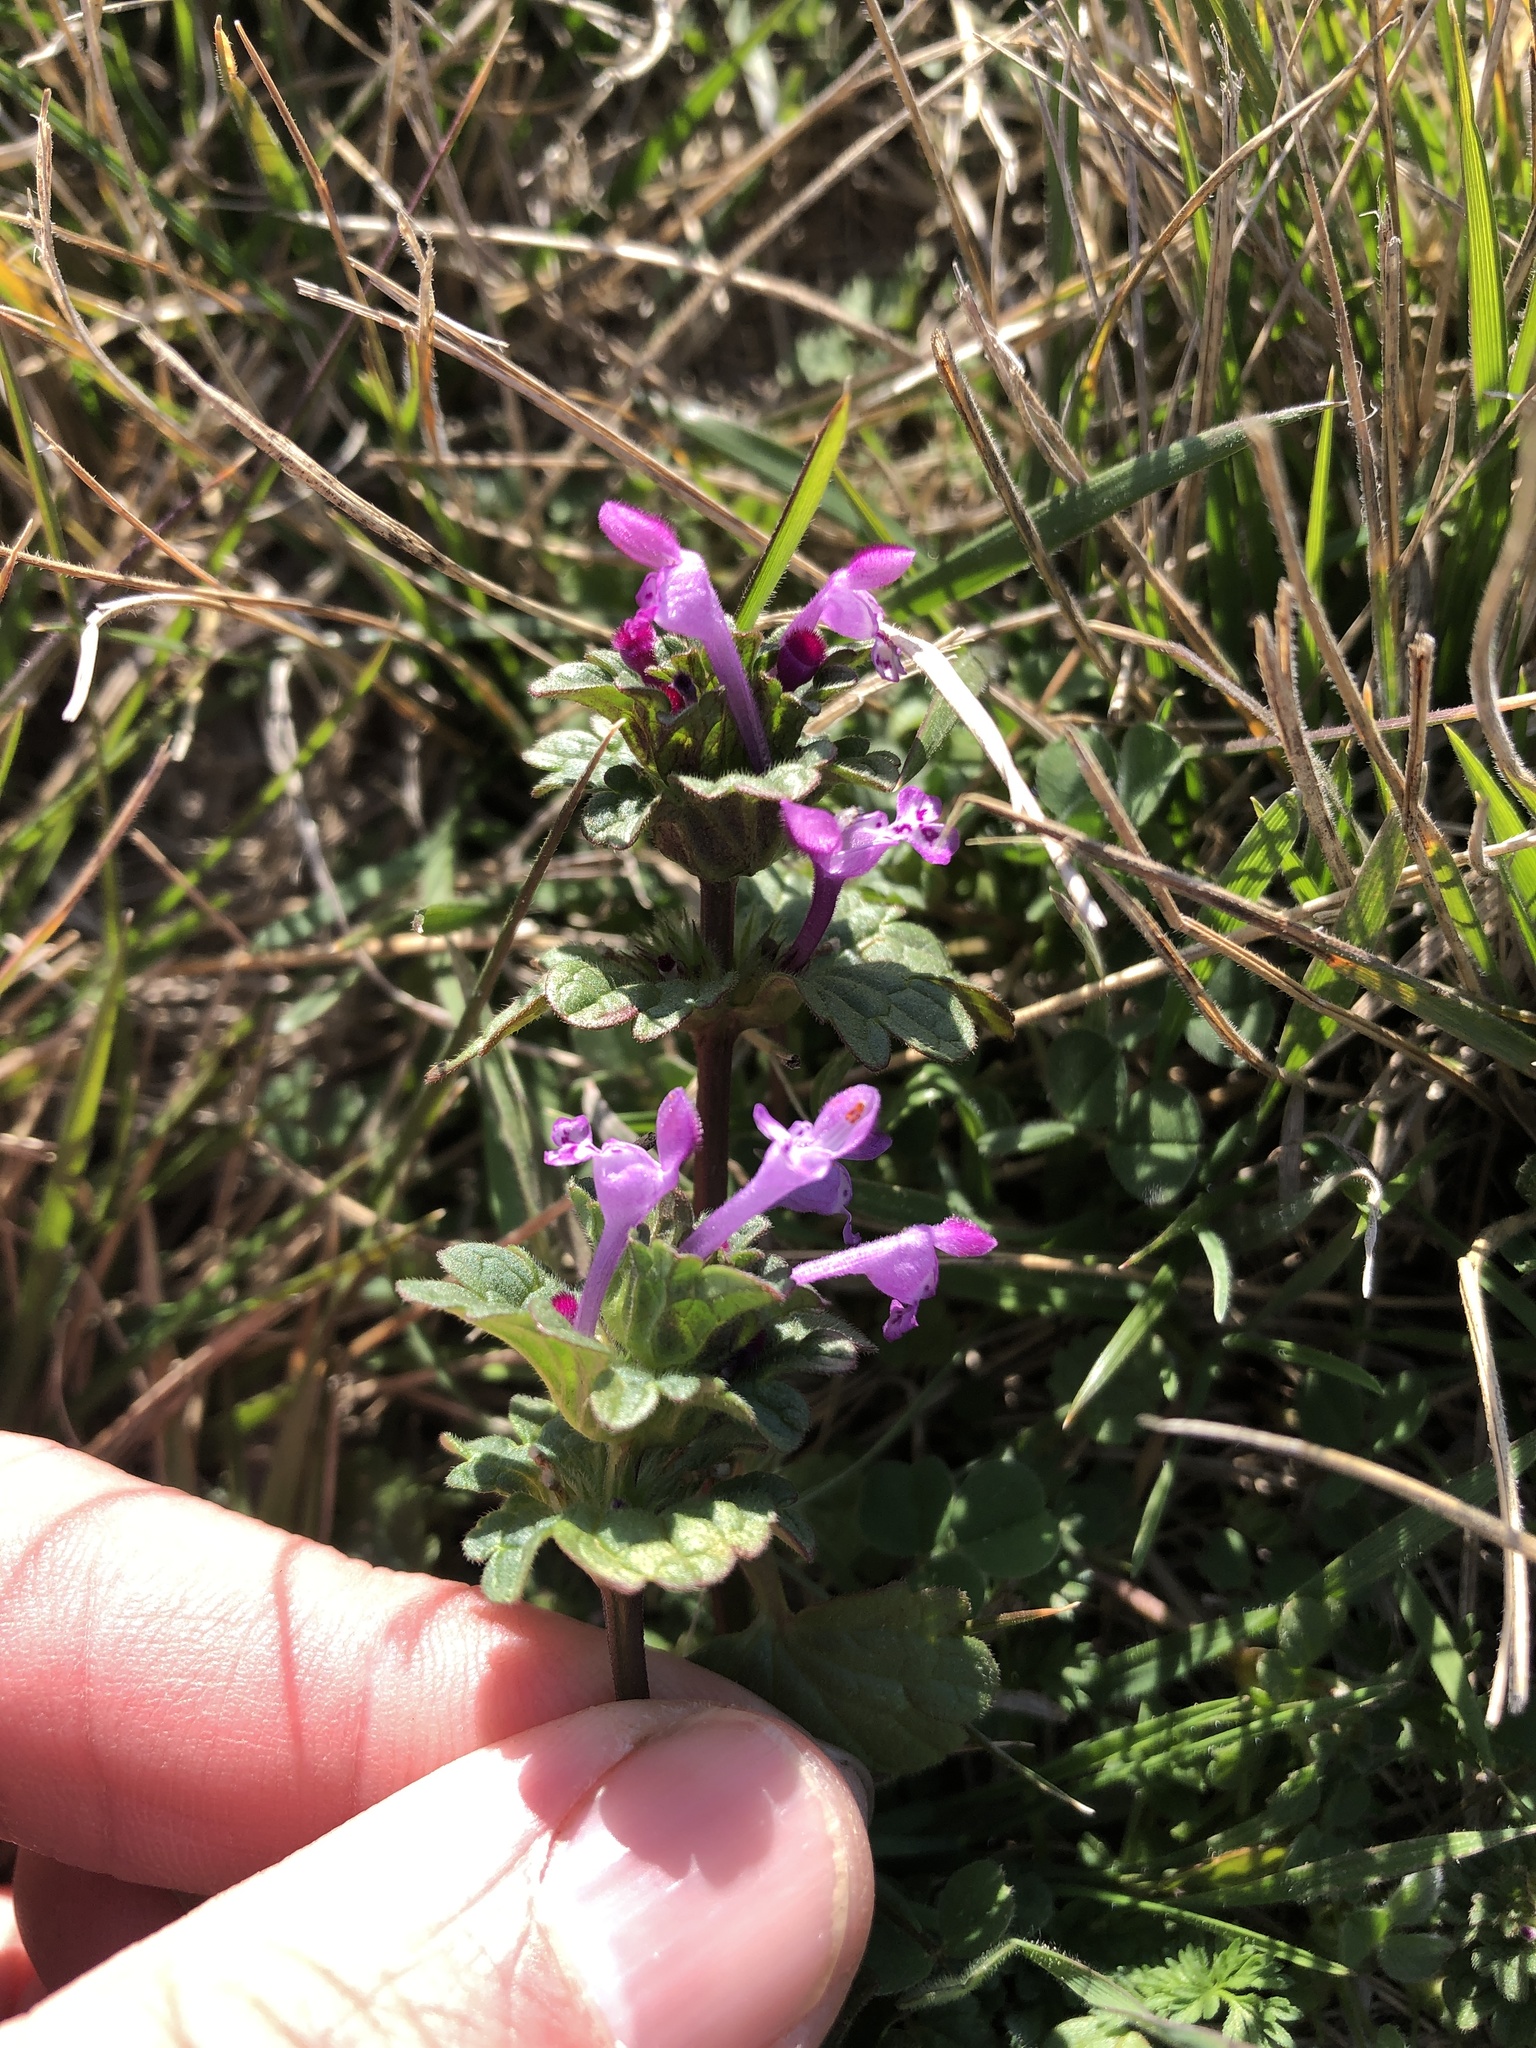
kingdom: Plantae
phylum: Tracheophyta
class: Magnoliopsida
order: Lamiales
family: Lamiaceae
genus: Lamium
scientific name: Lamium amplexicaule
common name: Henbit dead-nettle
